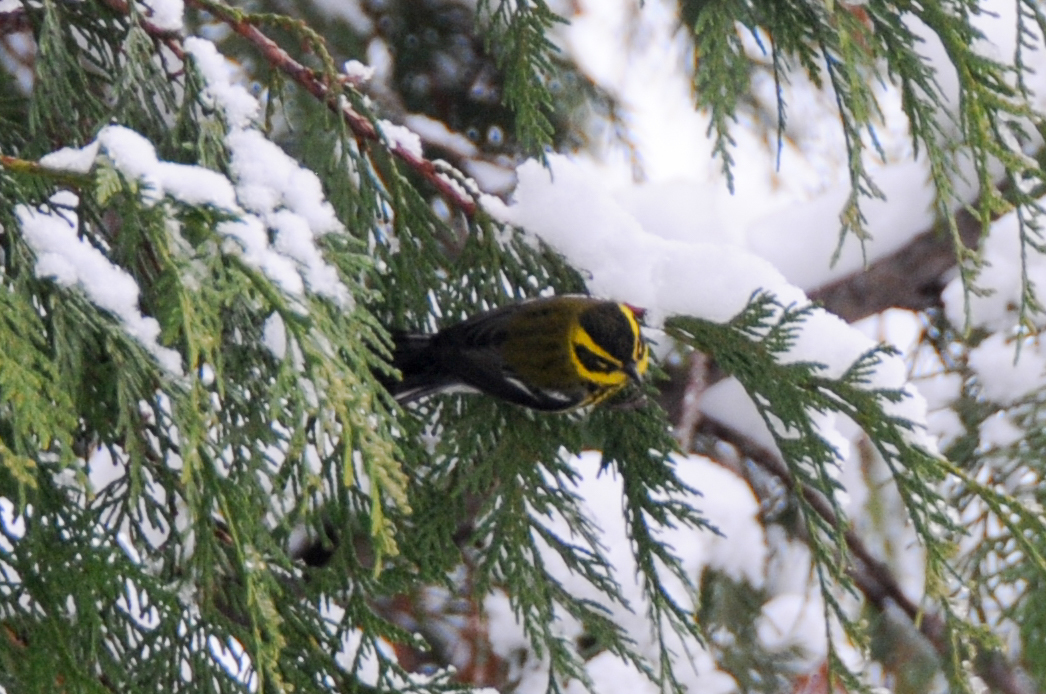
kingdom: Animalia
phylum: Chordata
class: Aves
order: Passeriformes
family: Parulidae
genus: Setophaga
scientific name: Setophaga townsendi
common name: Townsend's warbler
